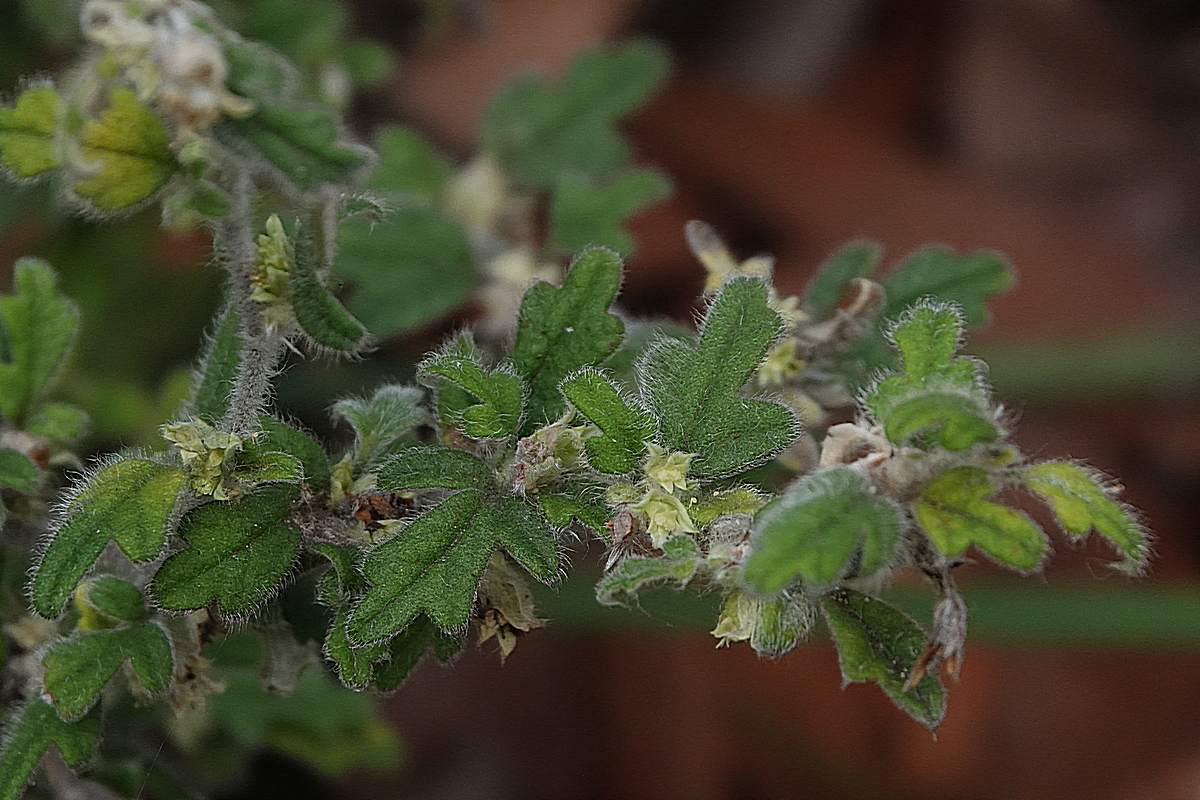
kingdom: Plantae
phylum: Tracheophyta
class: Magnoliopsida
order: Apiales
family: Apiaceae
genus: Xanthosia
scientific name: Xanthosia pilosa
